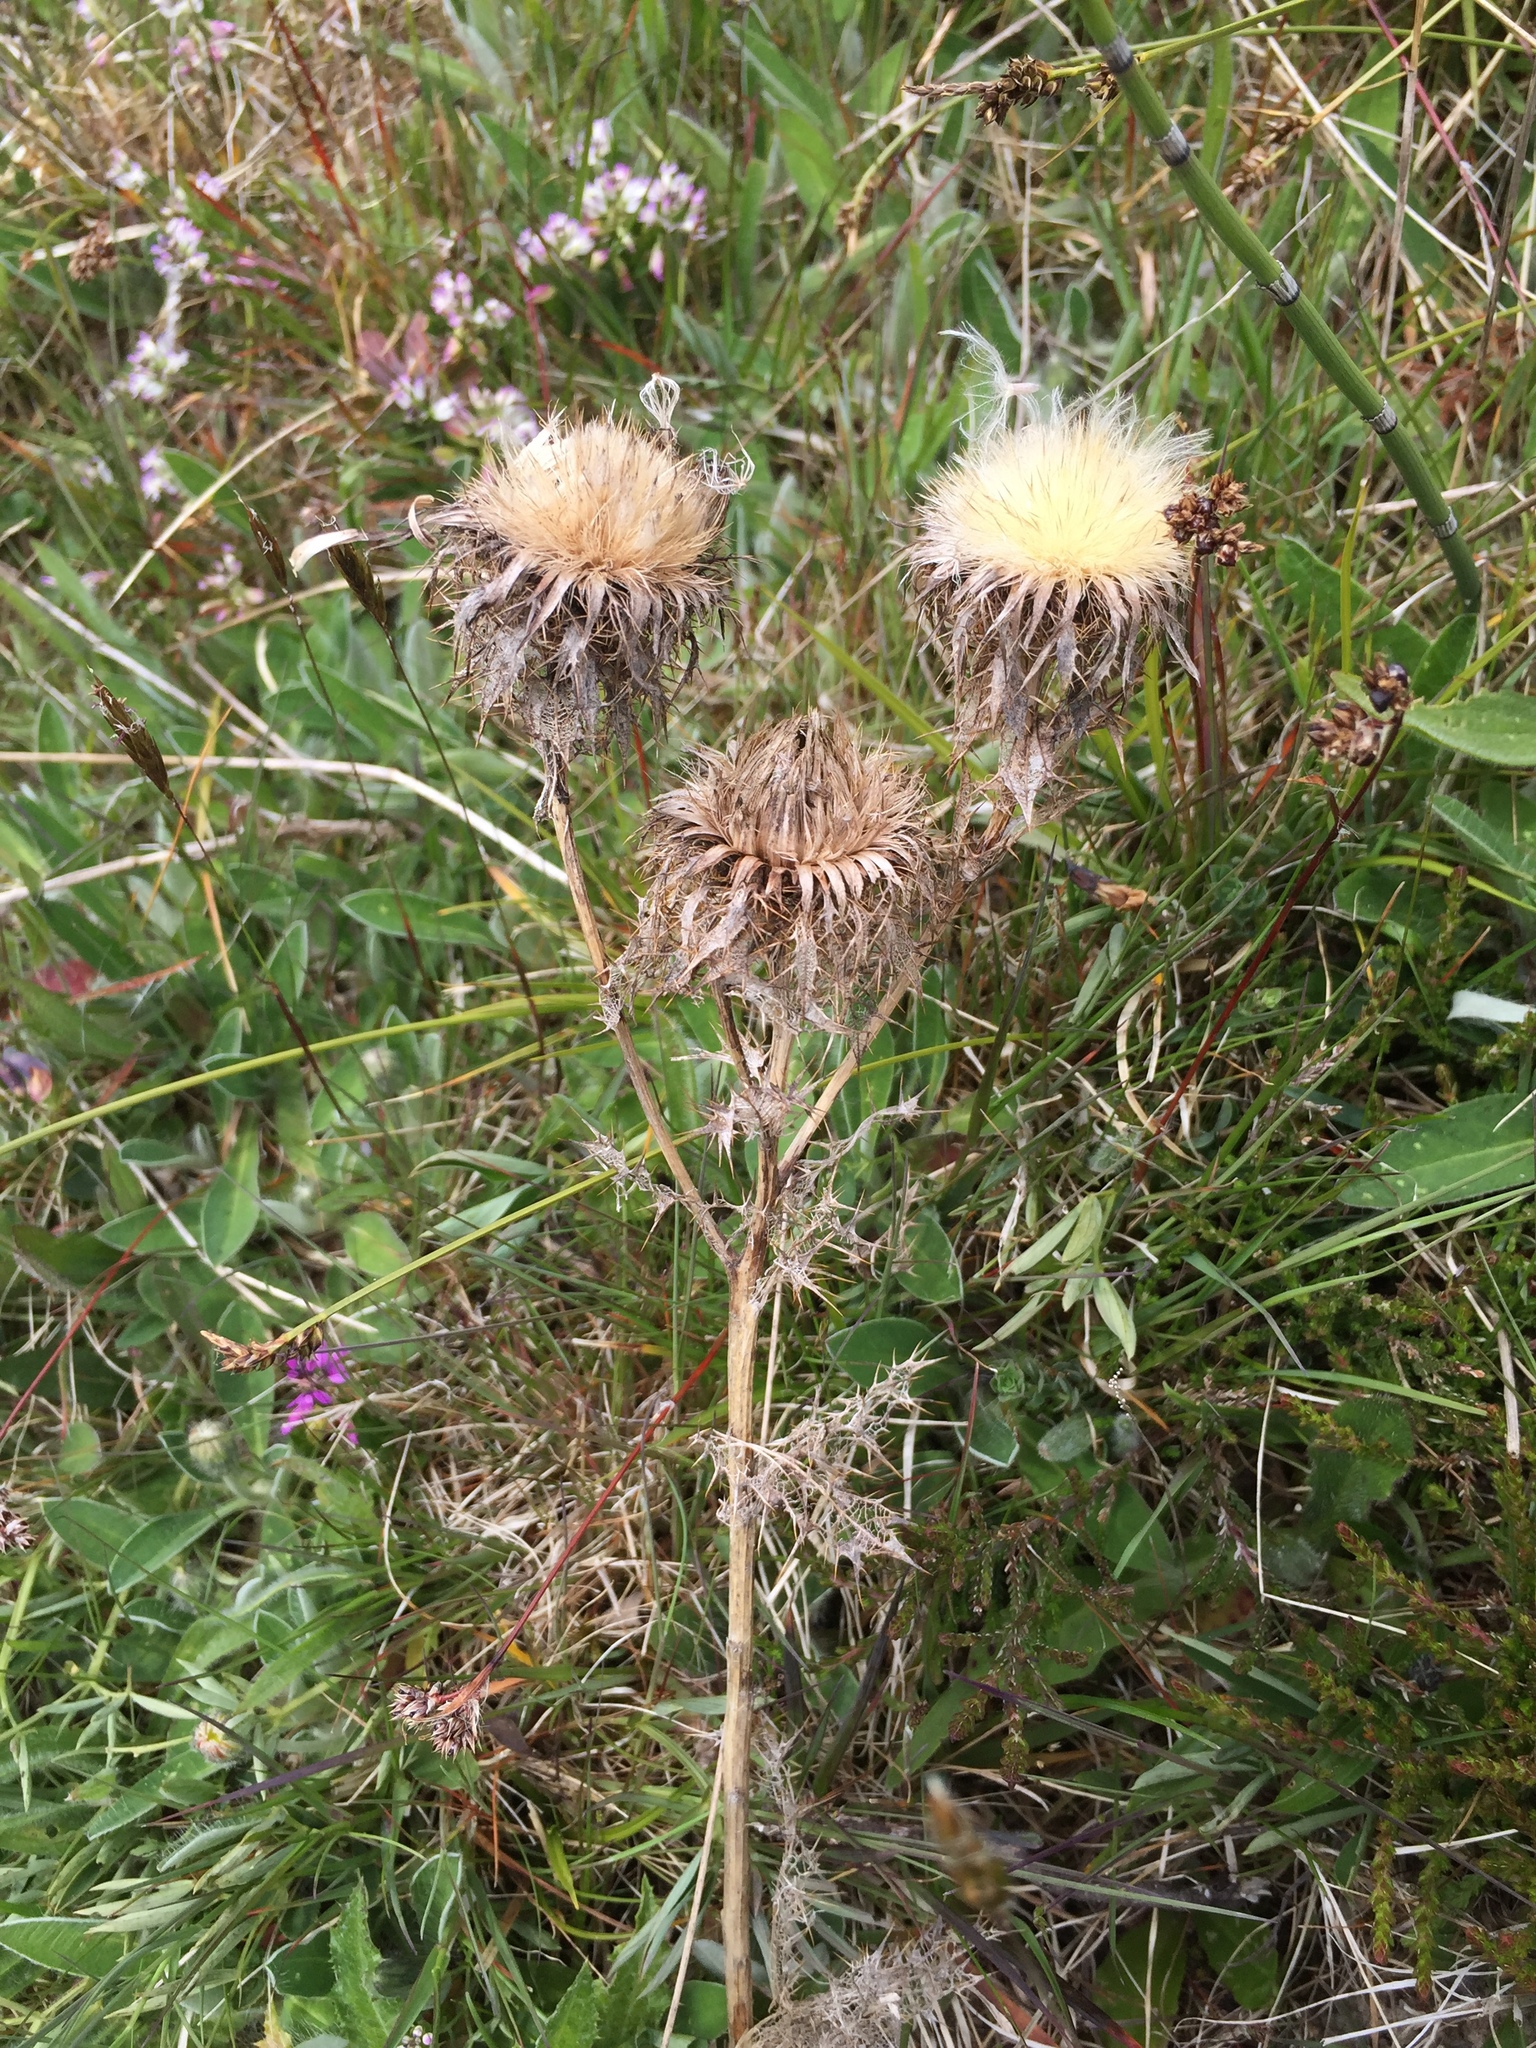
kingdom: Plantae
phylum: Tracheophyta
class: Magnoliopsida
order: Asterales
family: Asteraceae
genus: Carlina
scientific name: Carlina vulgaris
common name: Carline thistle
